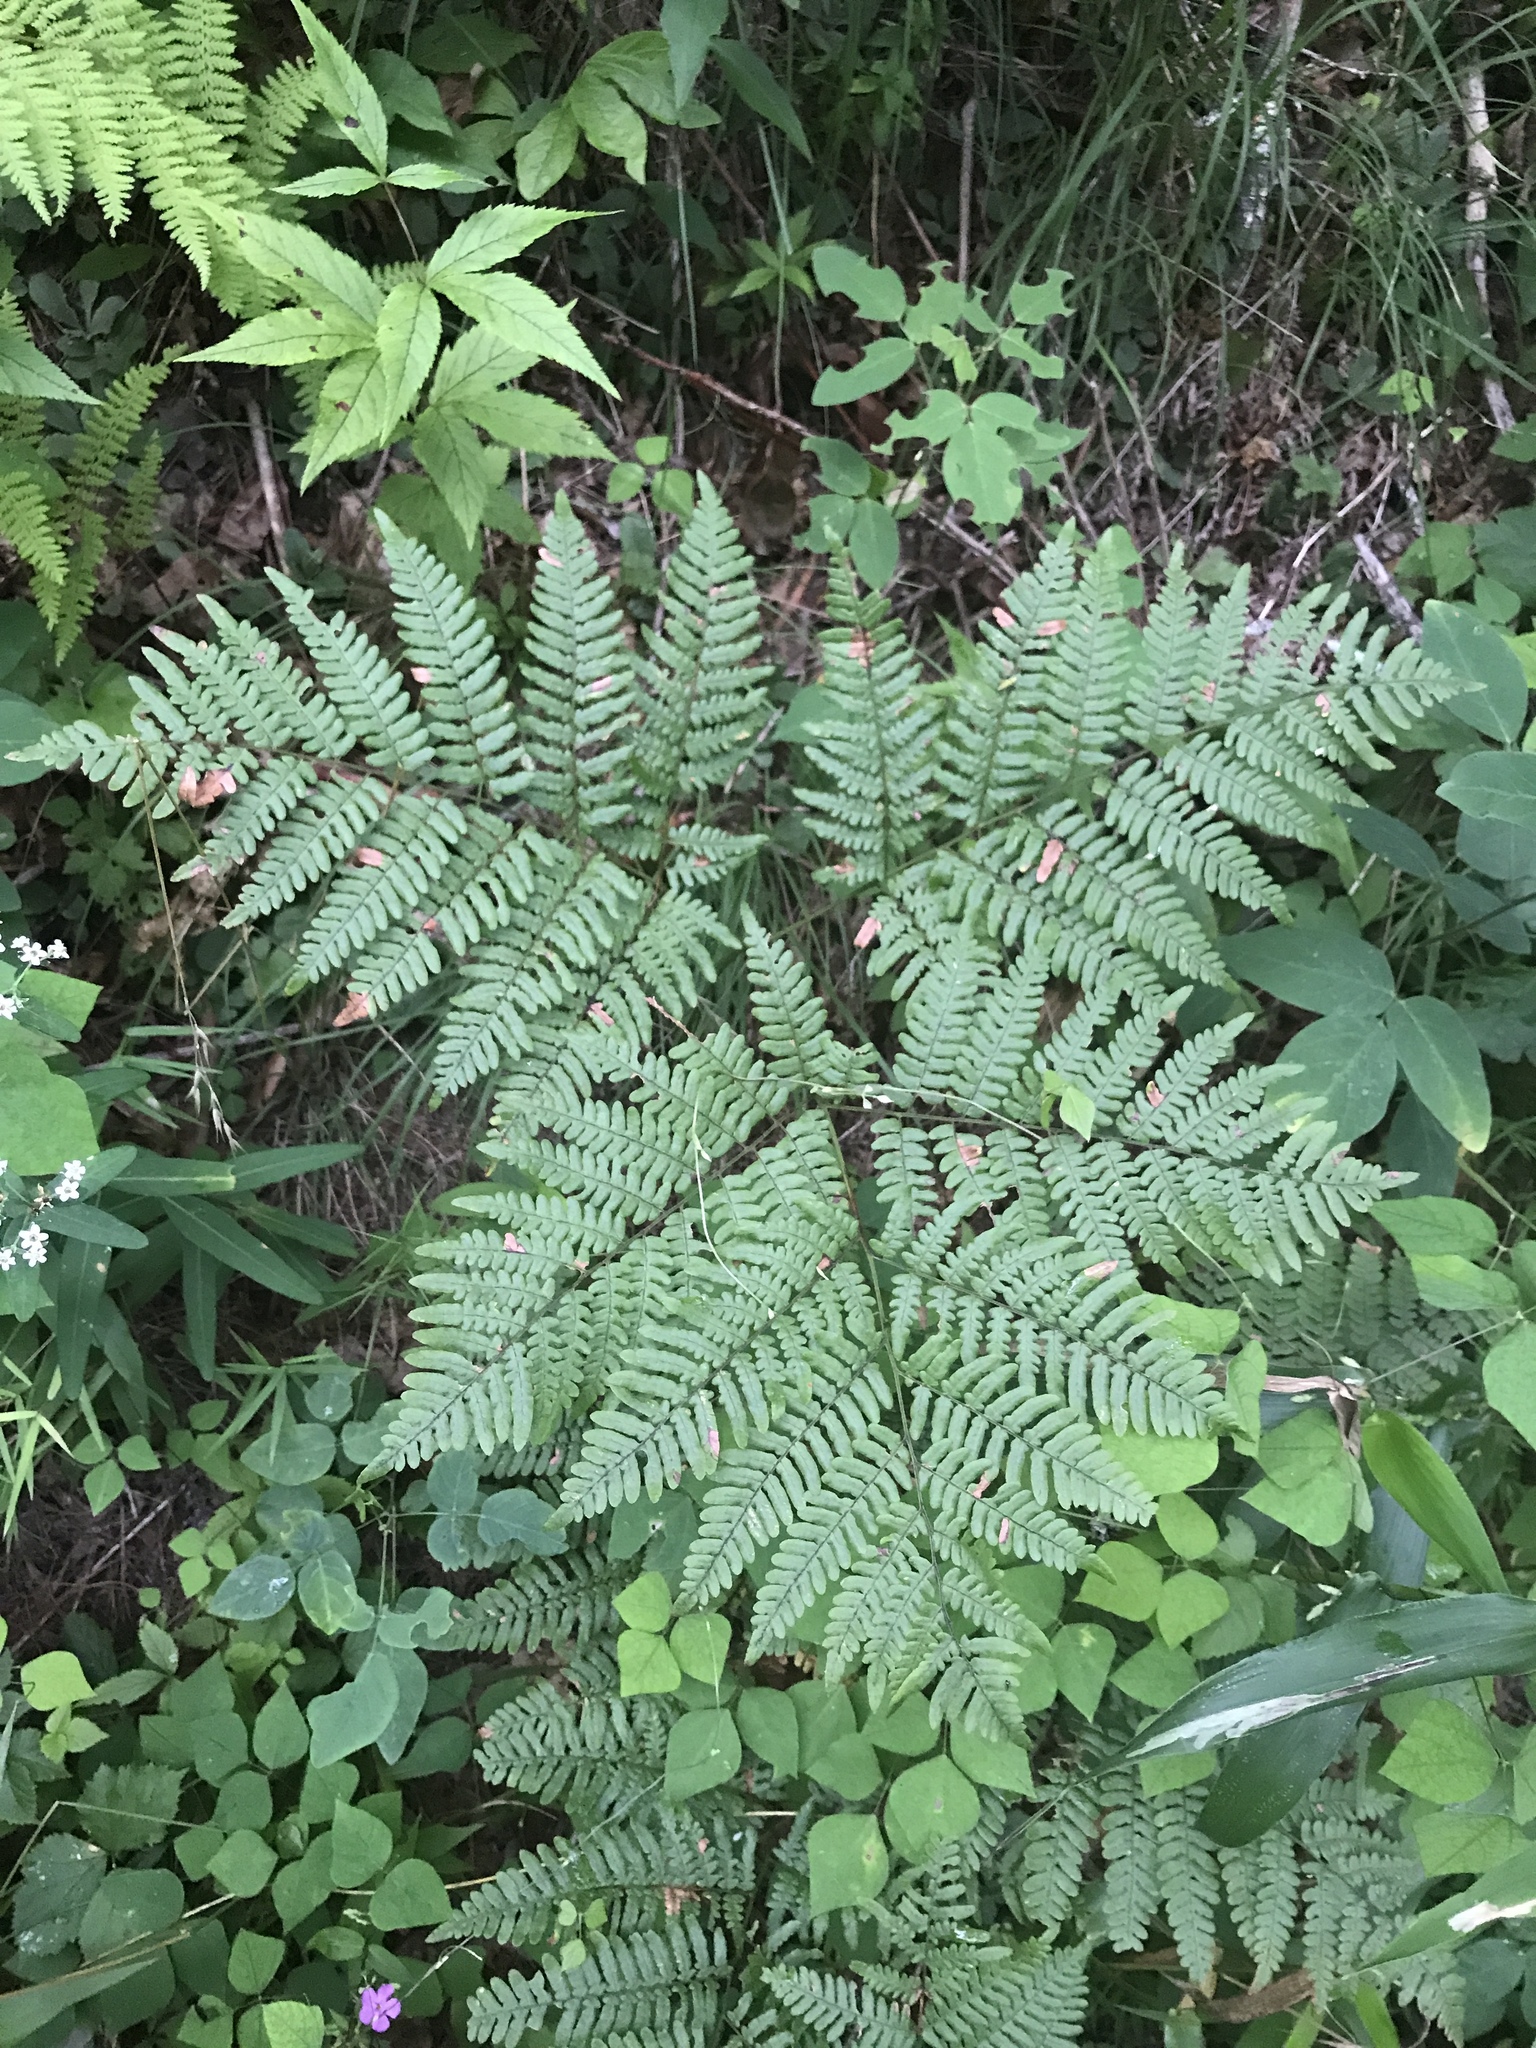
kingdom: Plantae
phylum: Tracheophyta
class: Polypodiopsida
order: Polypodiales
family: Dennstaedtiaceae
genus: Pteridium
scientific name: Pteridium aquilinum
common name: Bracken
